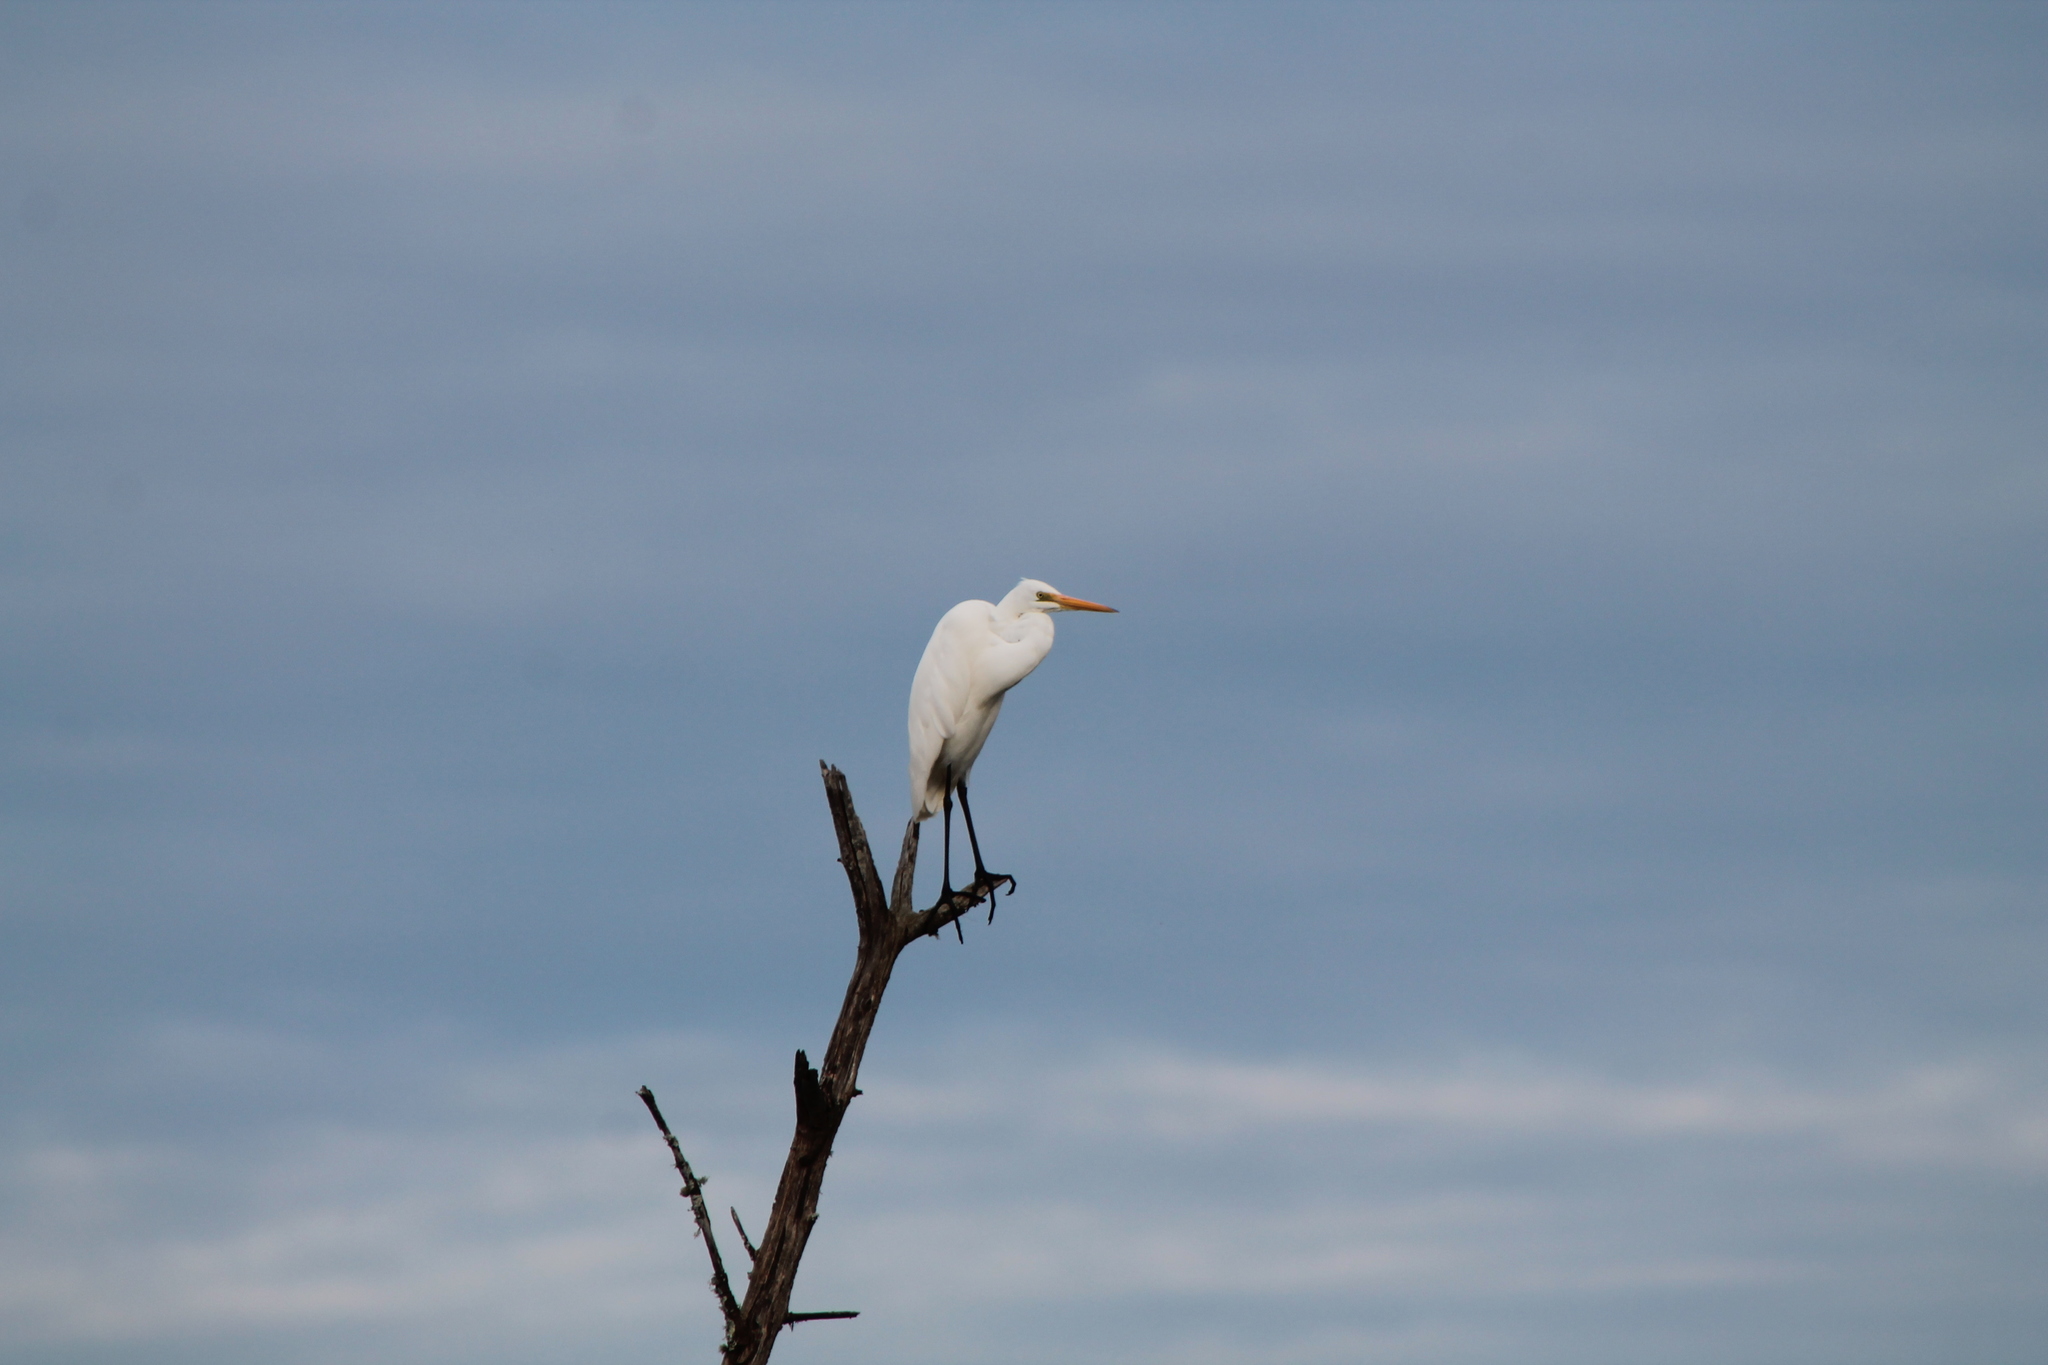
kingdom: Animalia
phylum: Chordata
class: Aves
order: Pelecaniformes
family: Ardeidae
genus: Ardea
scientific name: Ardea modesta
